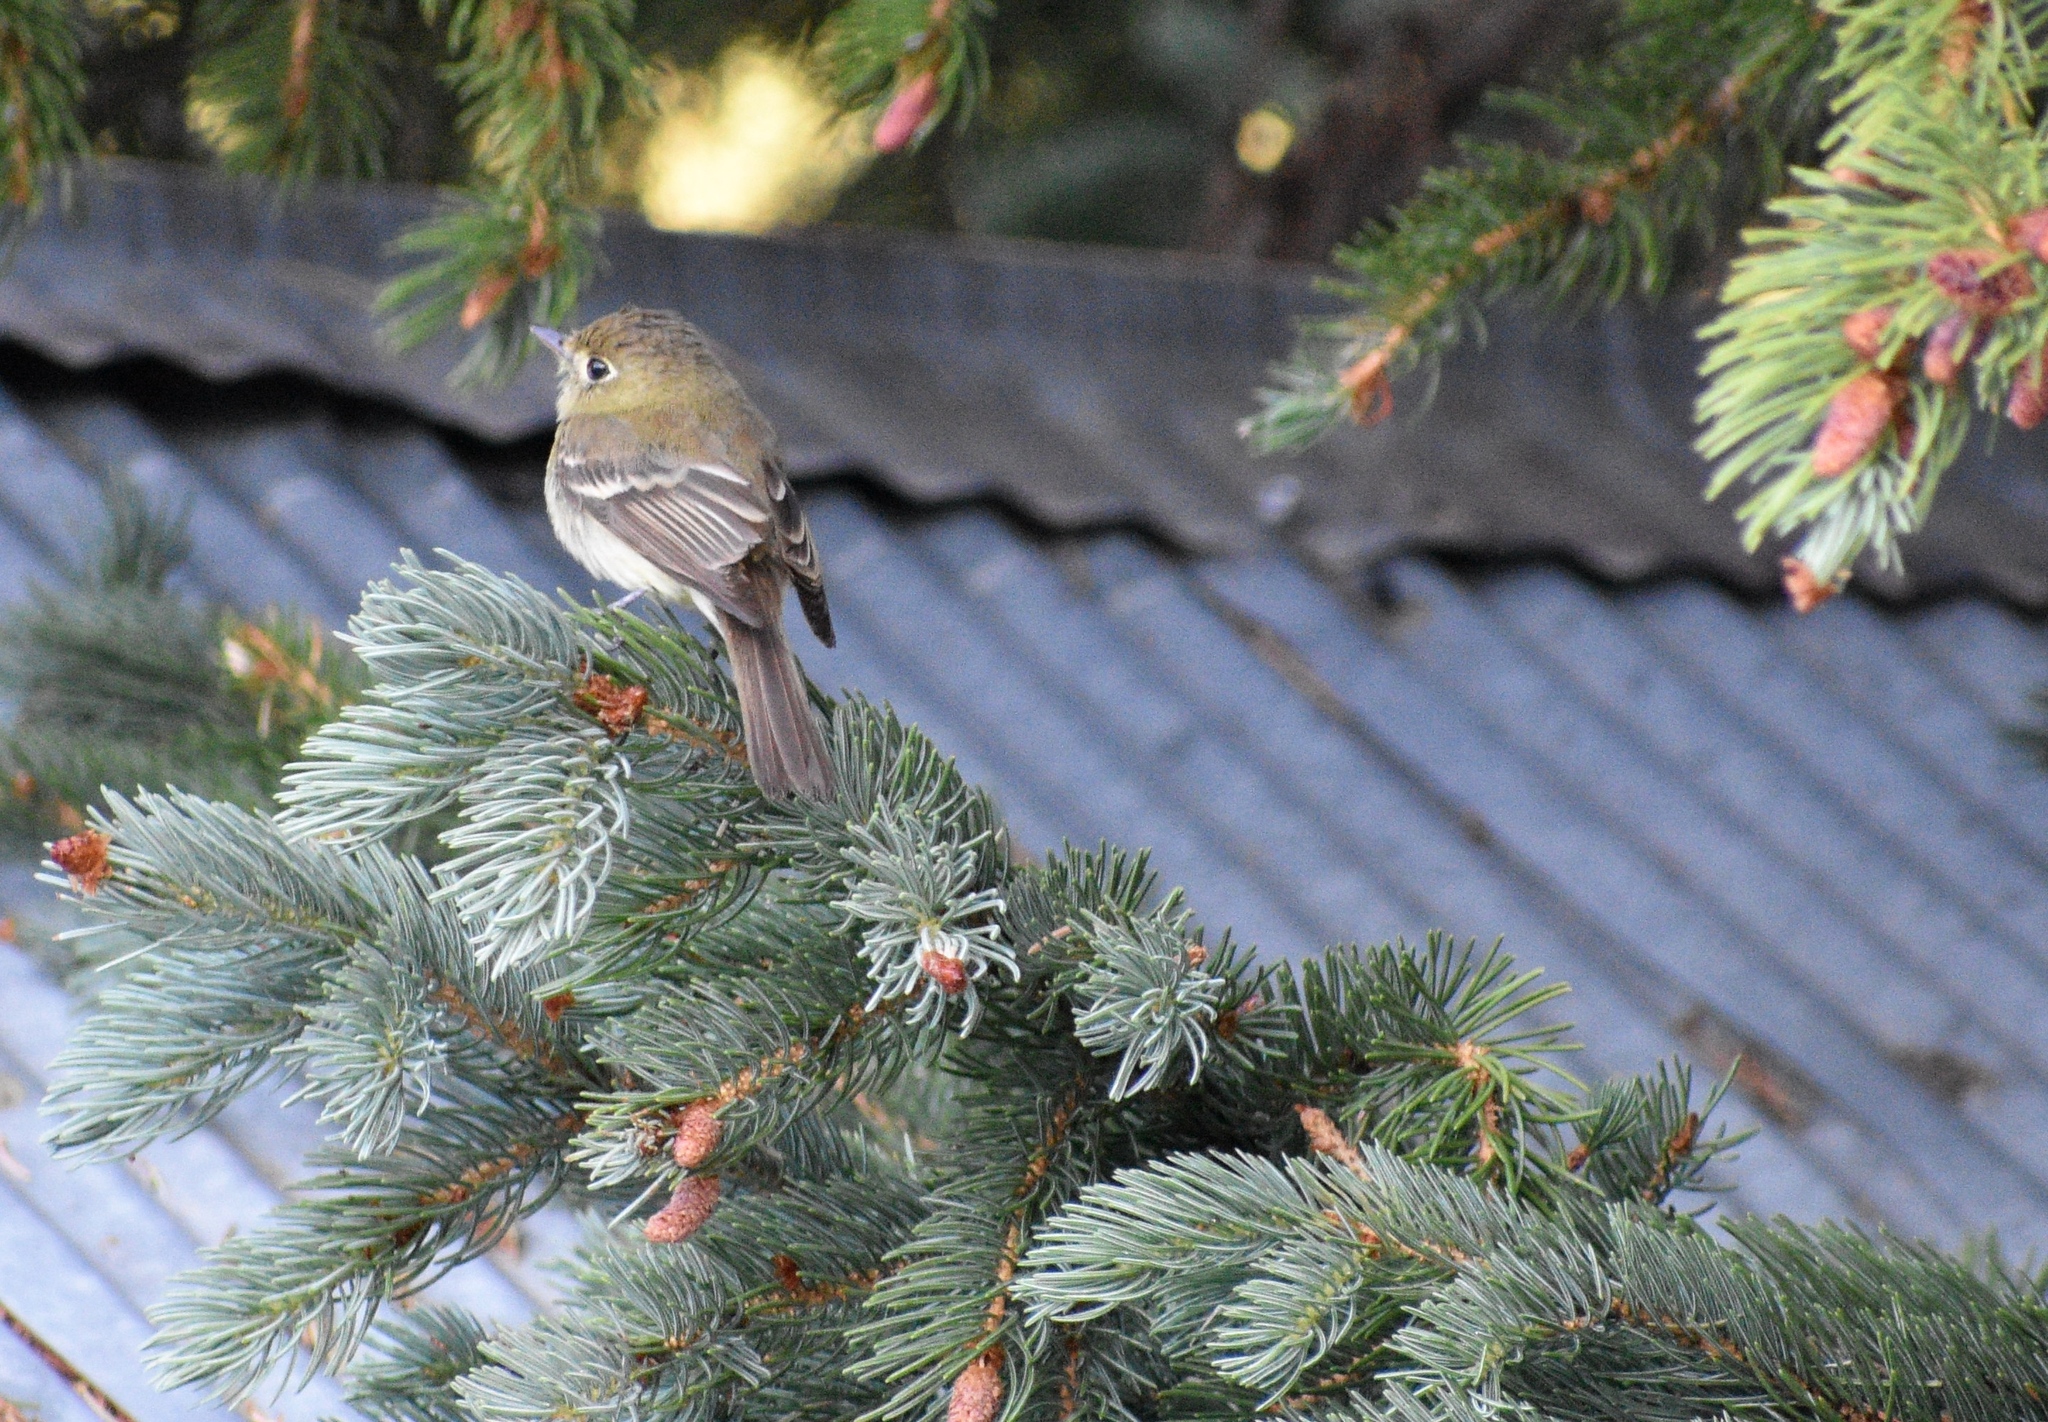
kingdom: Animalia
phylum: Chordata
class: Aves
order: Passeriformes
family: Tyrannidae
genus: Empidonax
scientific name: Empidonax difficilis
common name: Pacific-slope flycatcher
